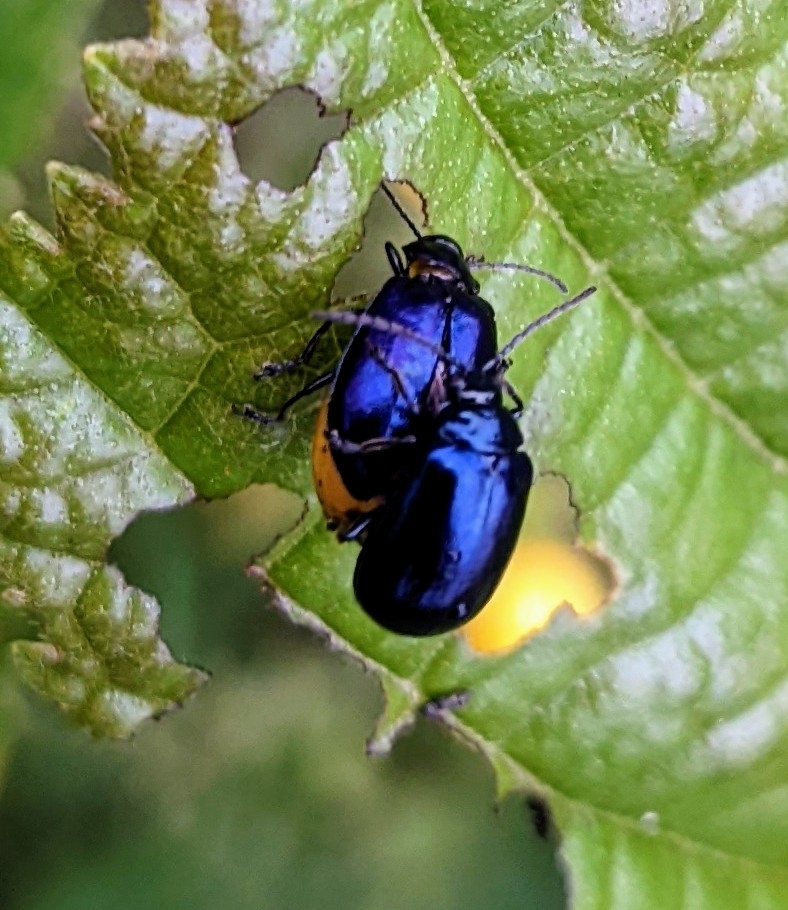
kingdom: Animalia
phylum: Arthropoda
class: Insecta
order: Coleoptera
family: Chrysomelidae
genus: Agelastica
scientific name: Agelastica alni
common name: Alder leaf beetle
